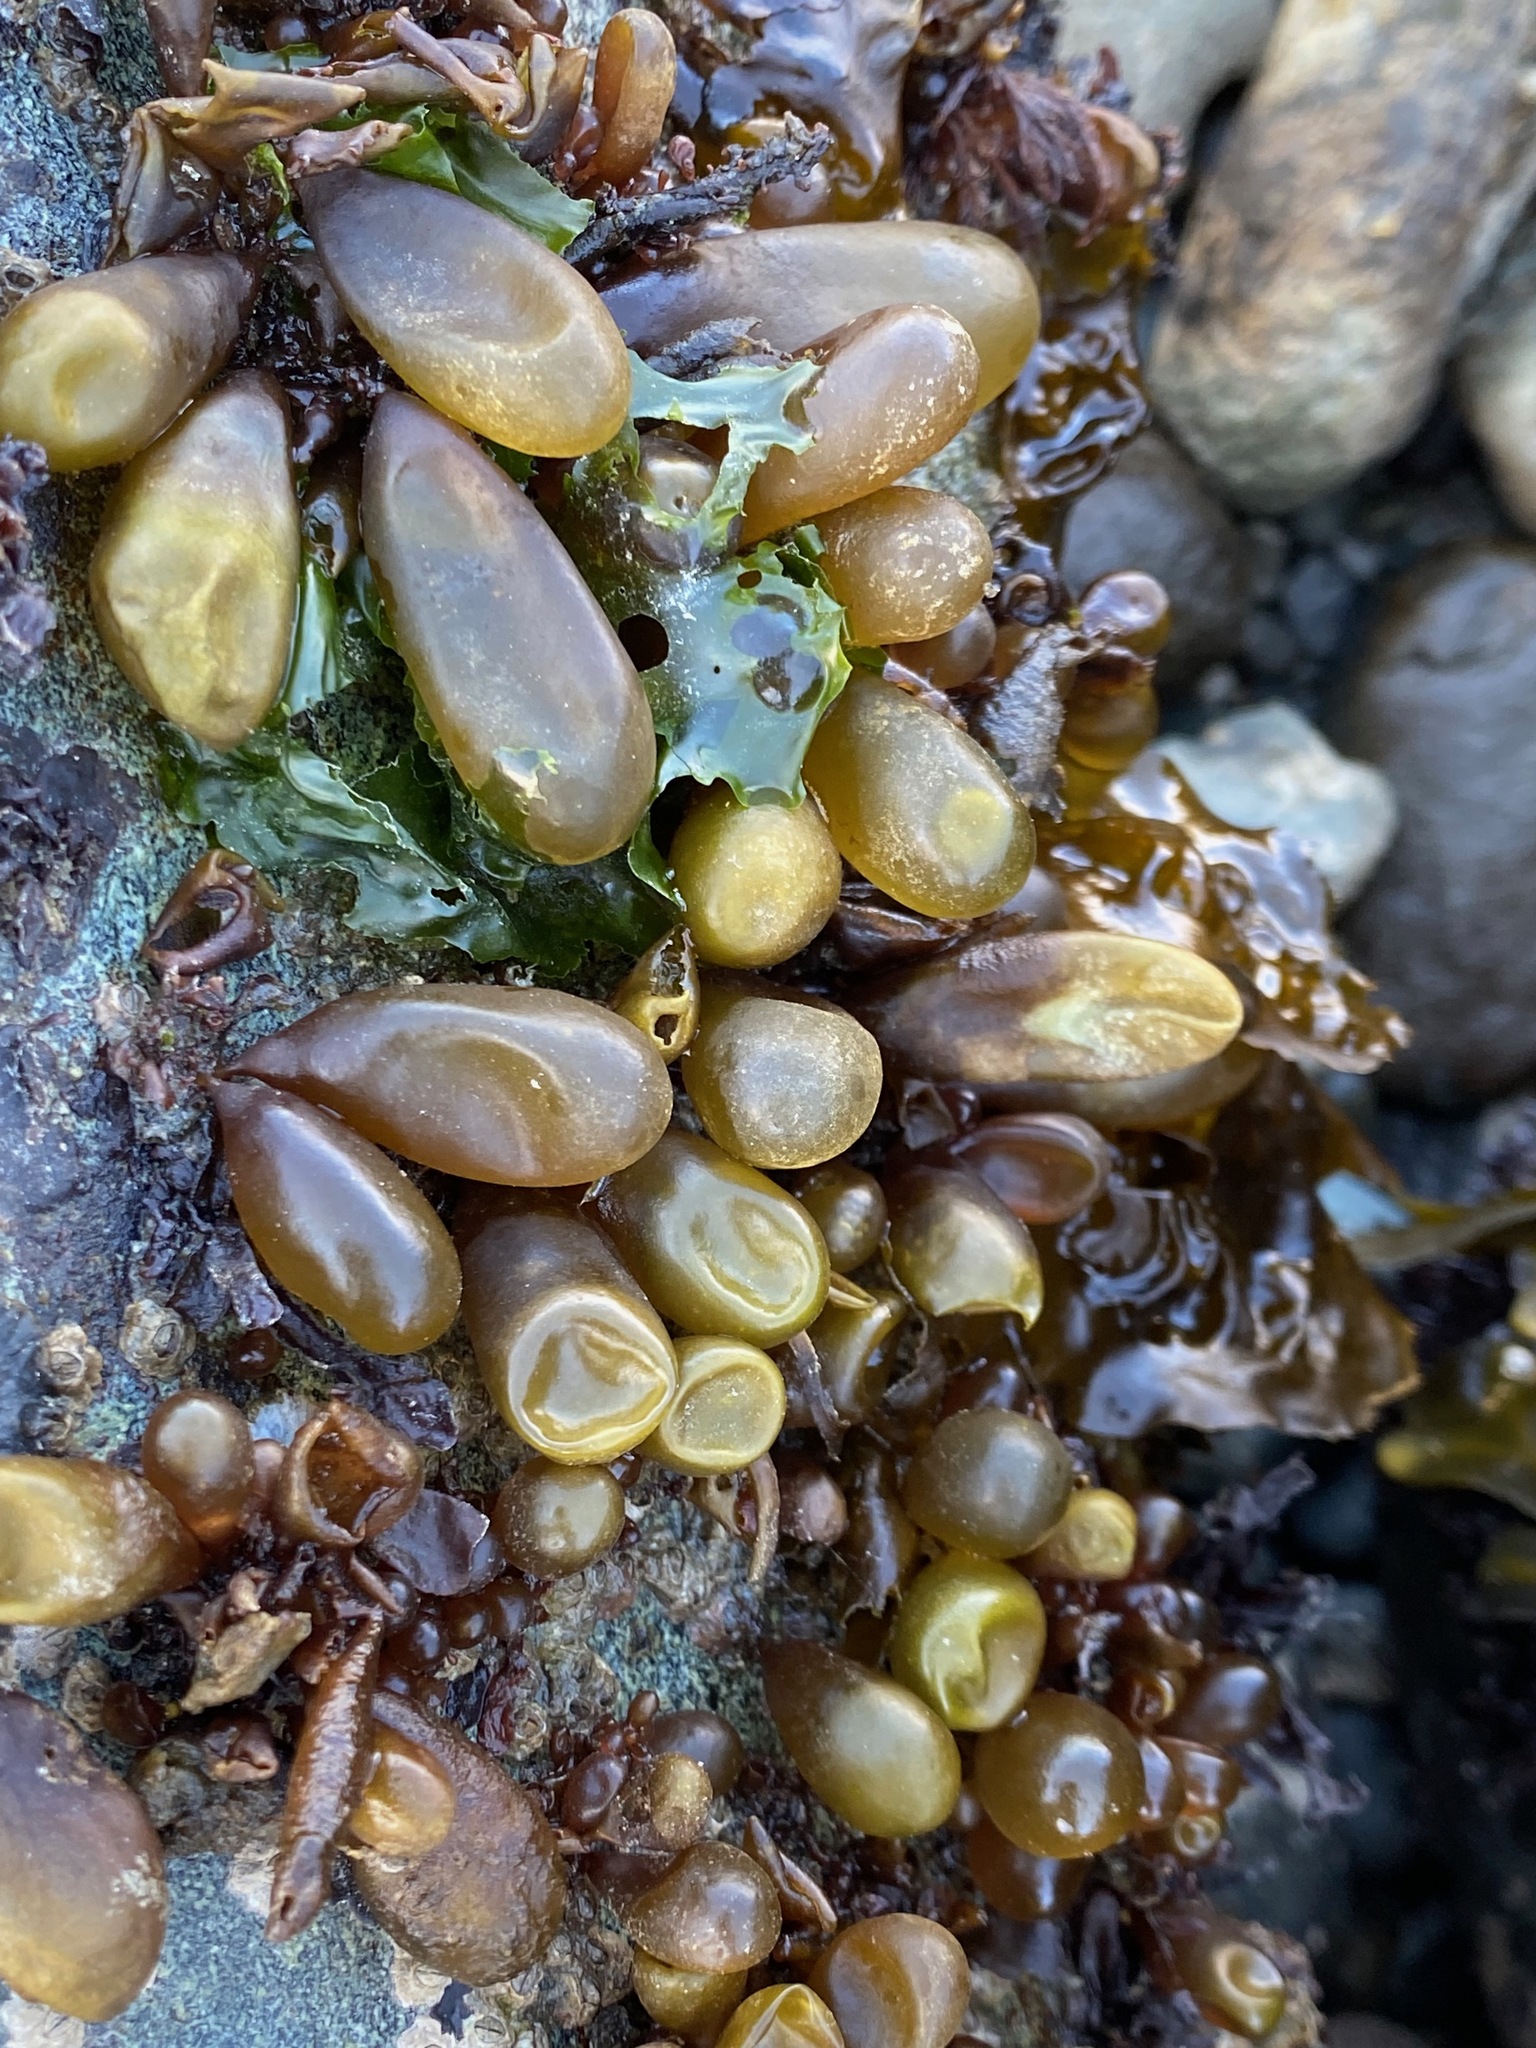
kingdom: Plantae
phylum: Rhodophyta
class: Florideophyceae
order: Palmariales
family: Palmariaceae
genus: Halosaccion
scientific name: Halosaccion glandiforme
